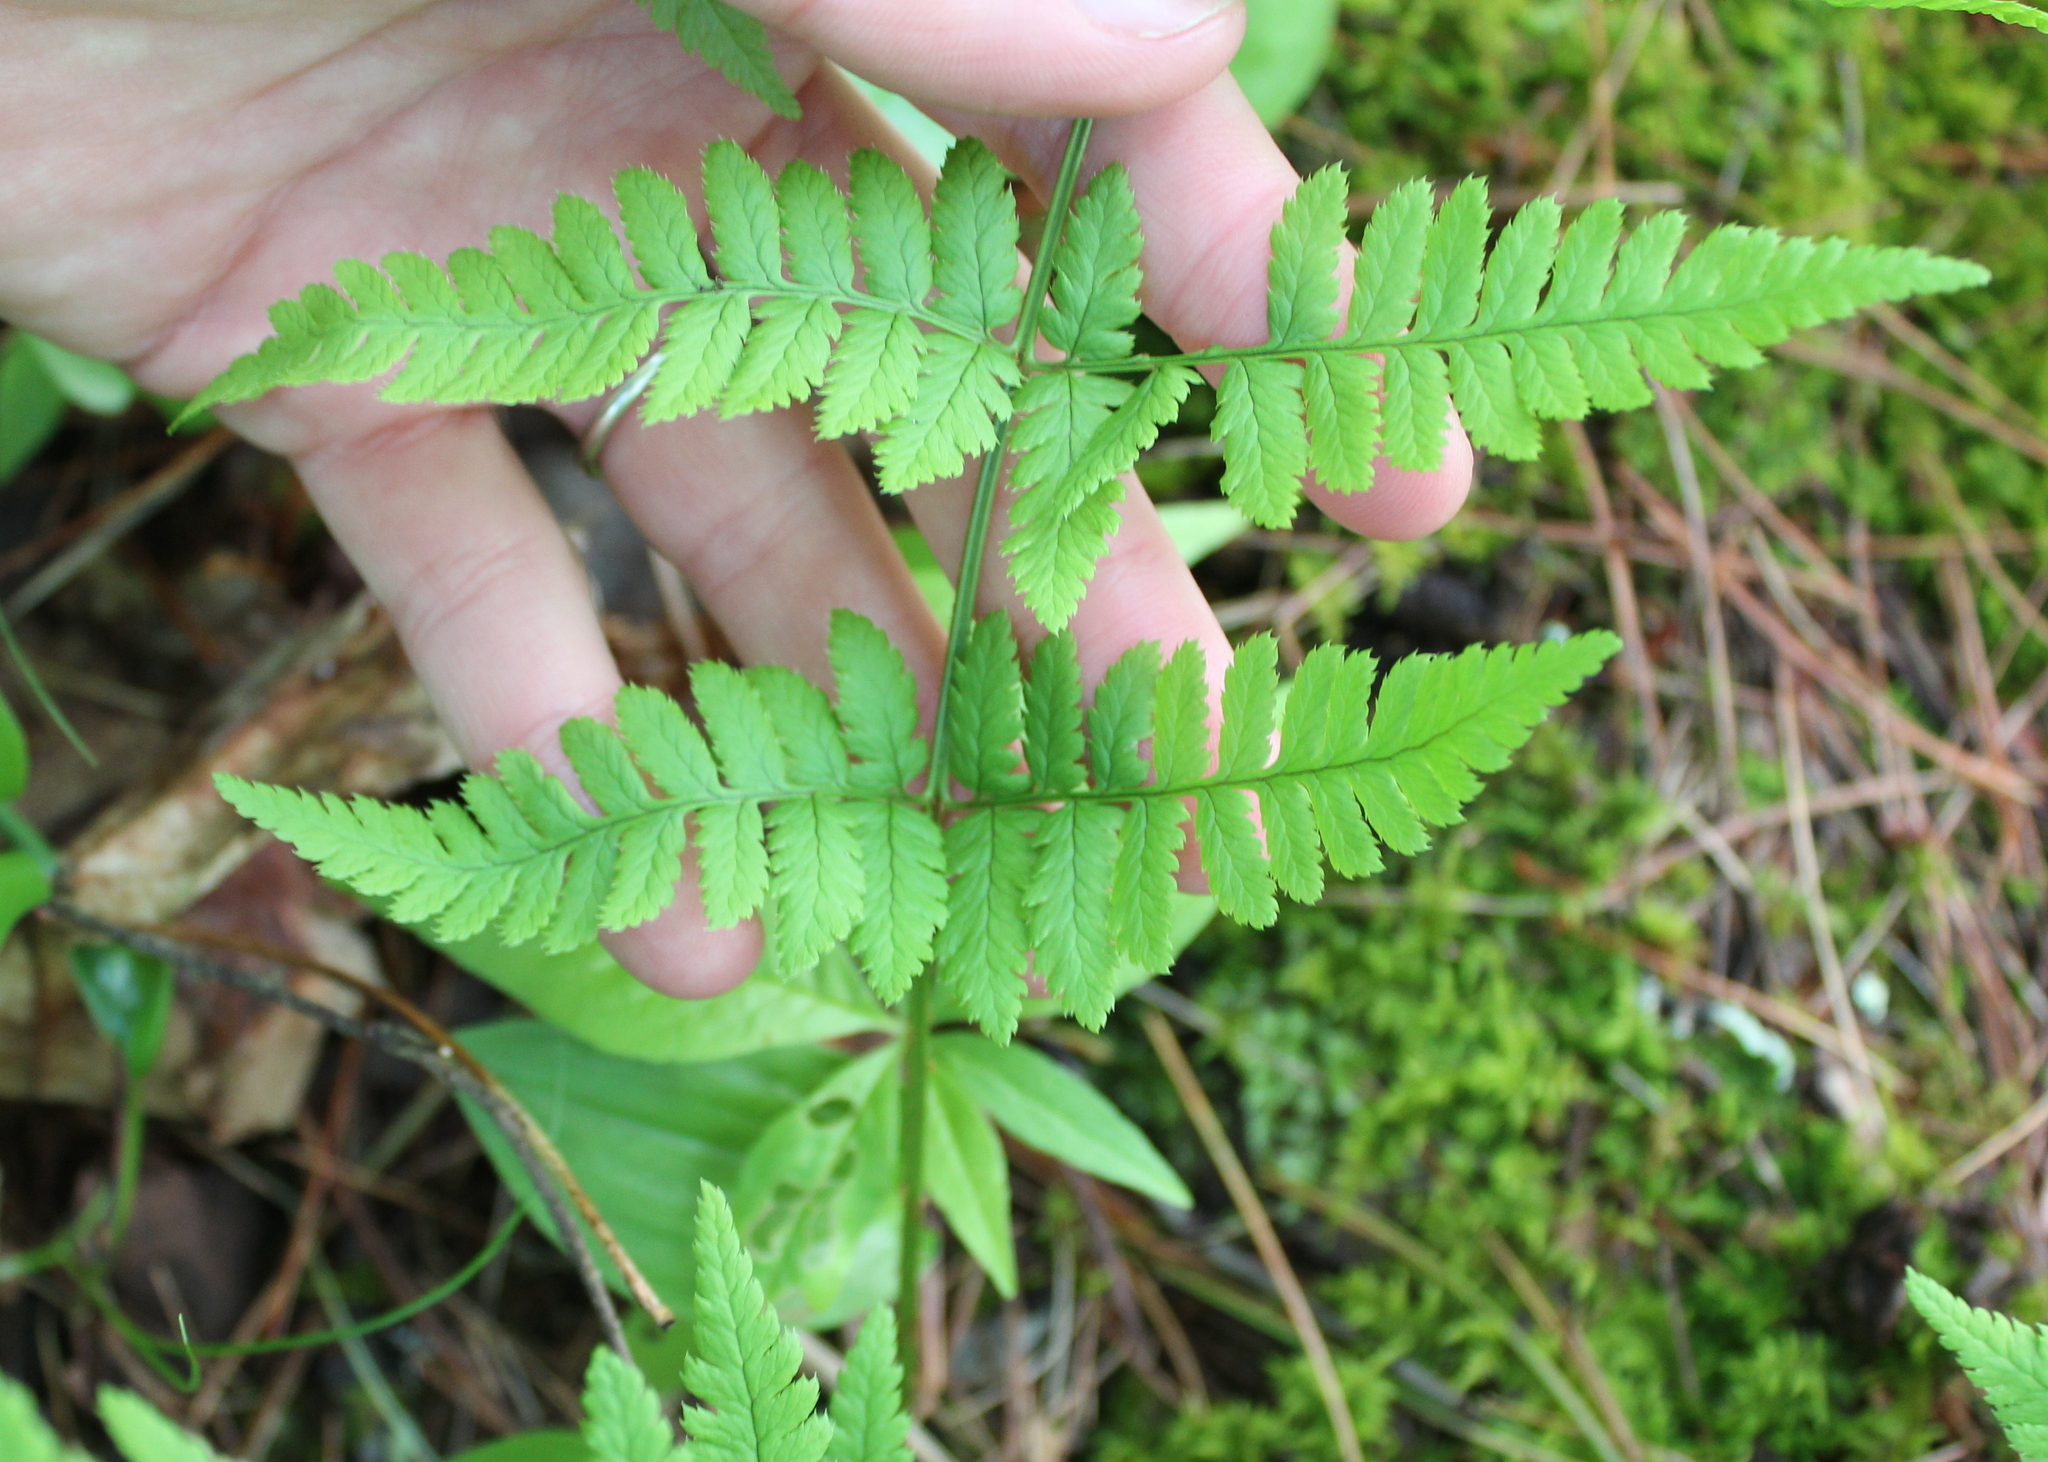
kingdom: Plantae
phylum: Tracheophyta
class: Polypodiopsida
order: Polypodiales
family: Dryopteridaceae
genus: Dryopteris
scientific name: Dryopteris carthusiana
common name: Narrow buckler-fern
